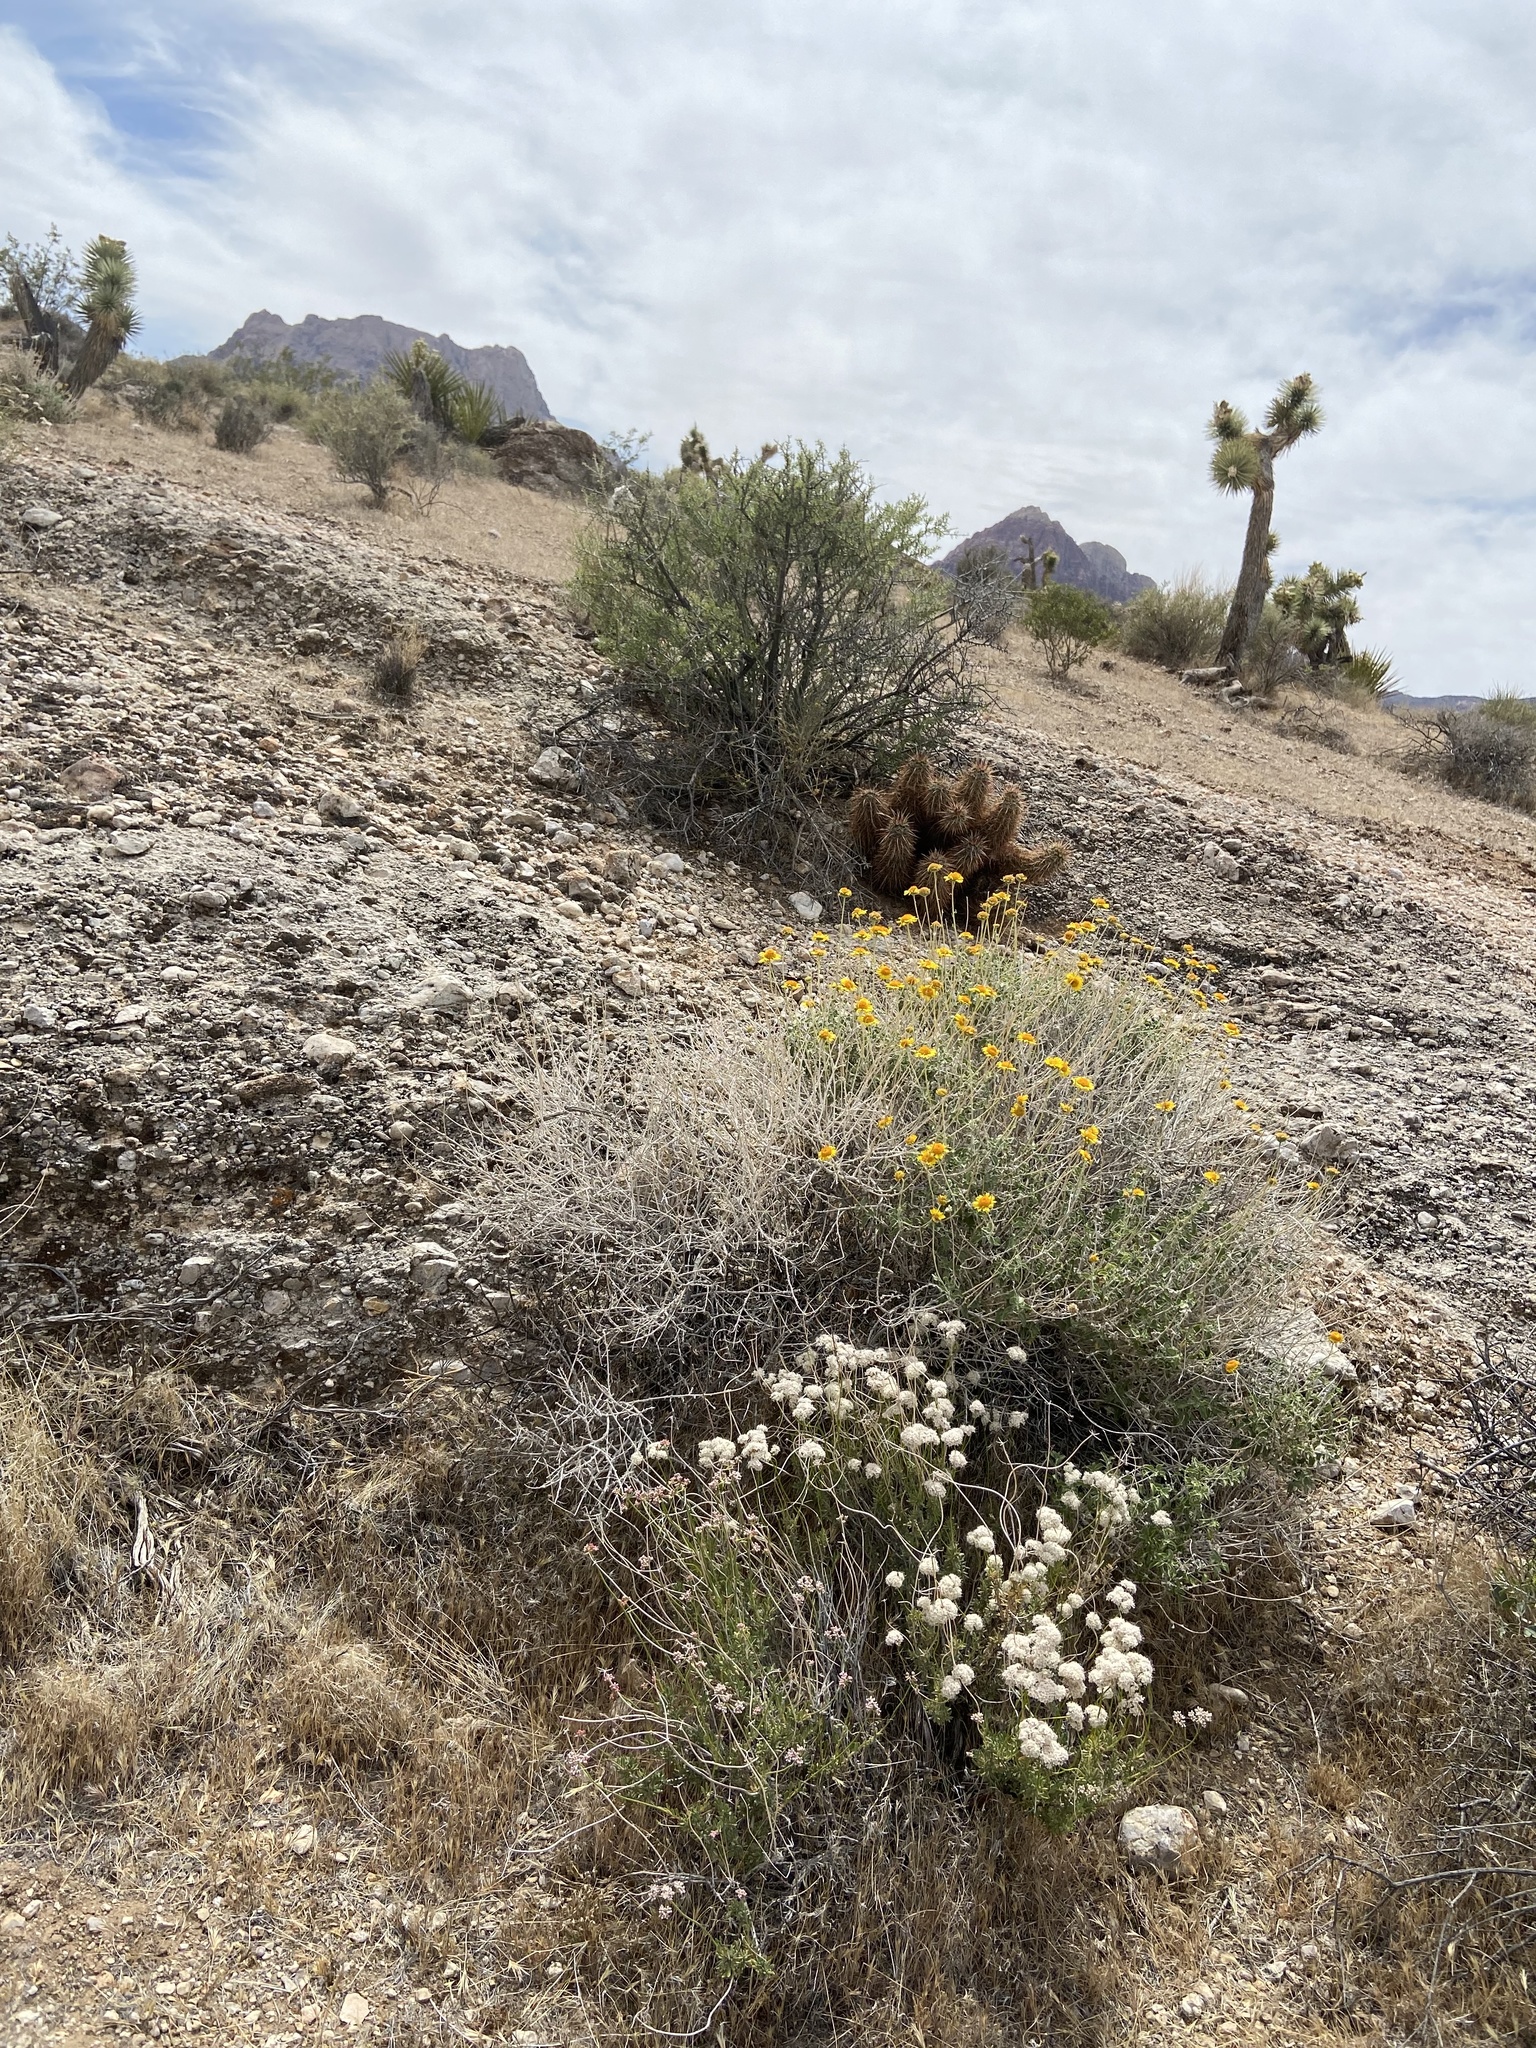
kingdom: Plantae
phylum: Tracheophyta
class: Magnoliopsida
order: Caryophyllales
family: Polygonaceae
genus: Eriogonum
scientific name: Eriogonum fasciculatum
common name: California wild buckwheat
